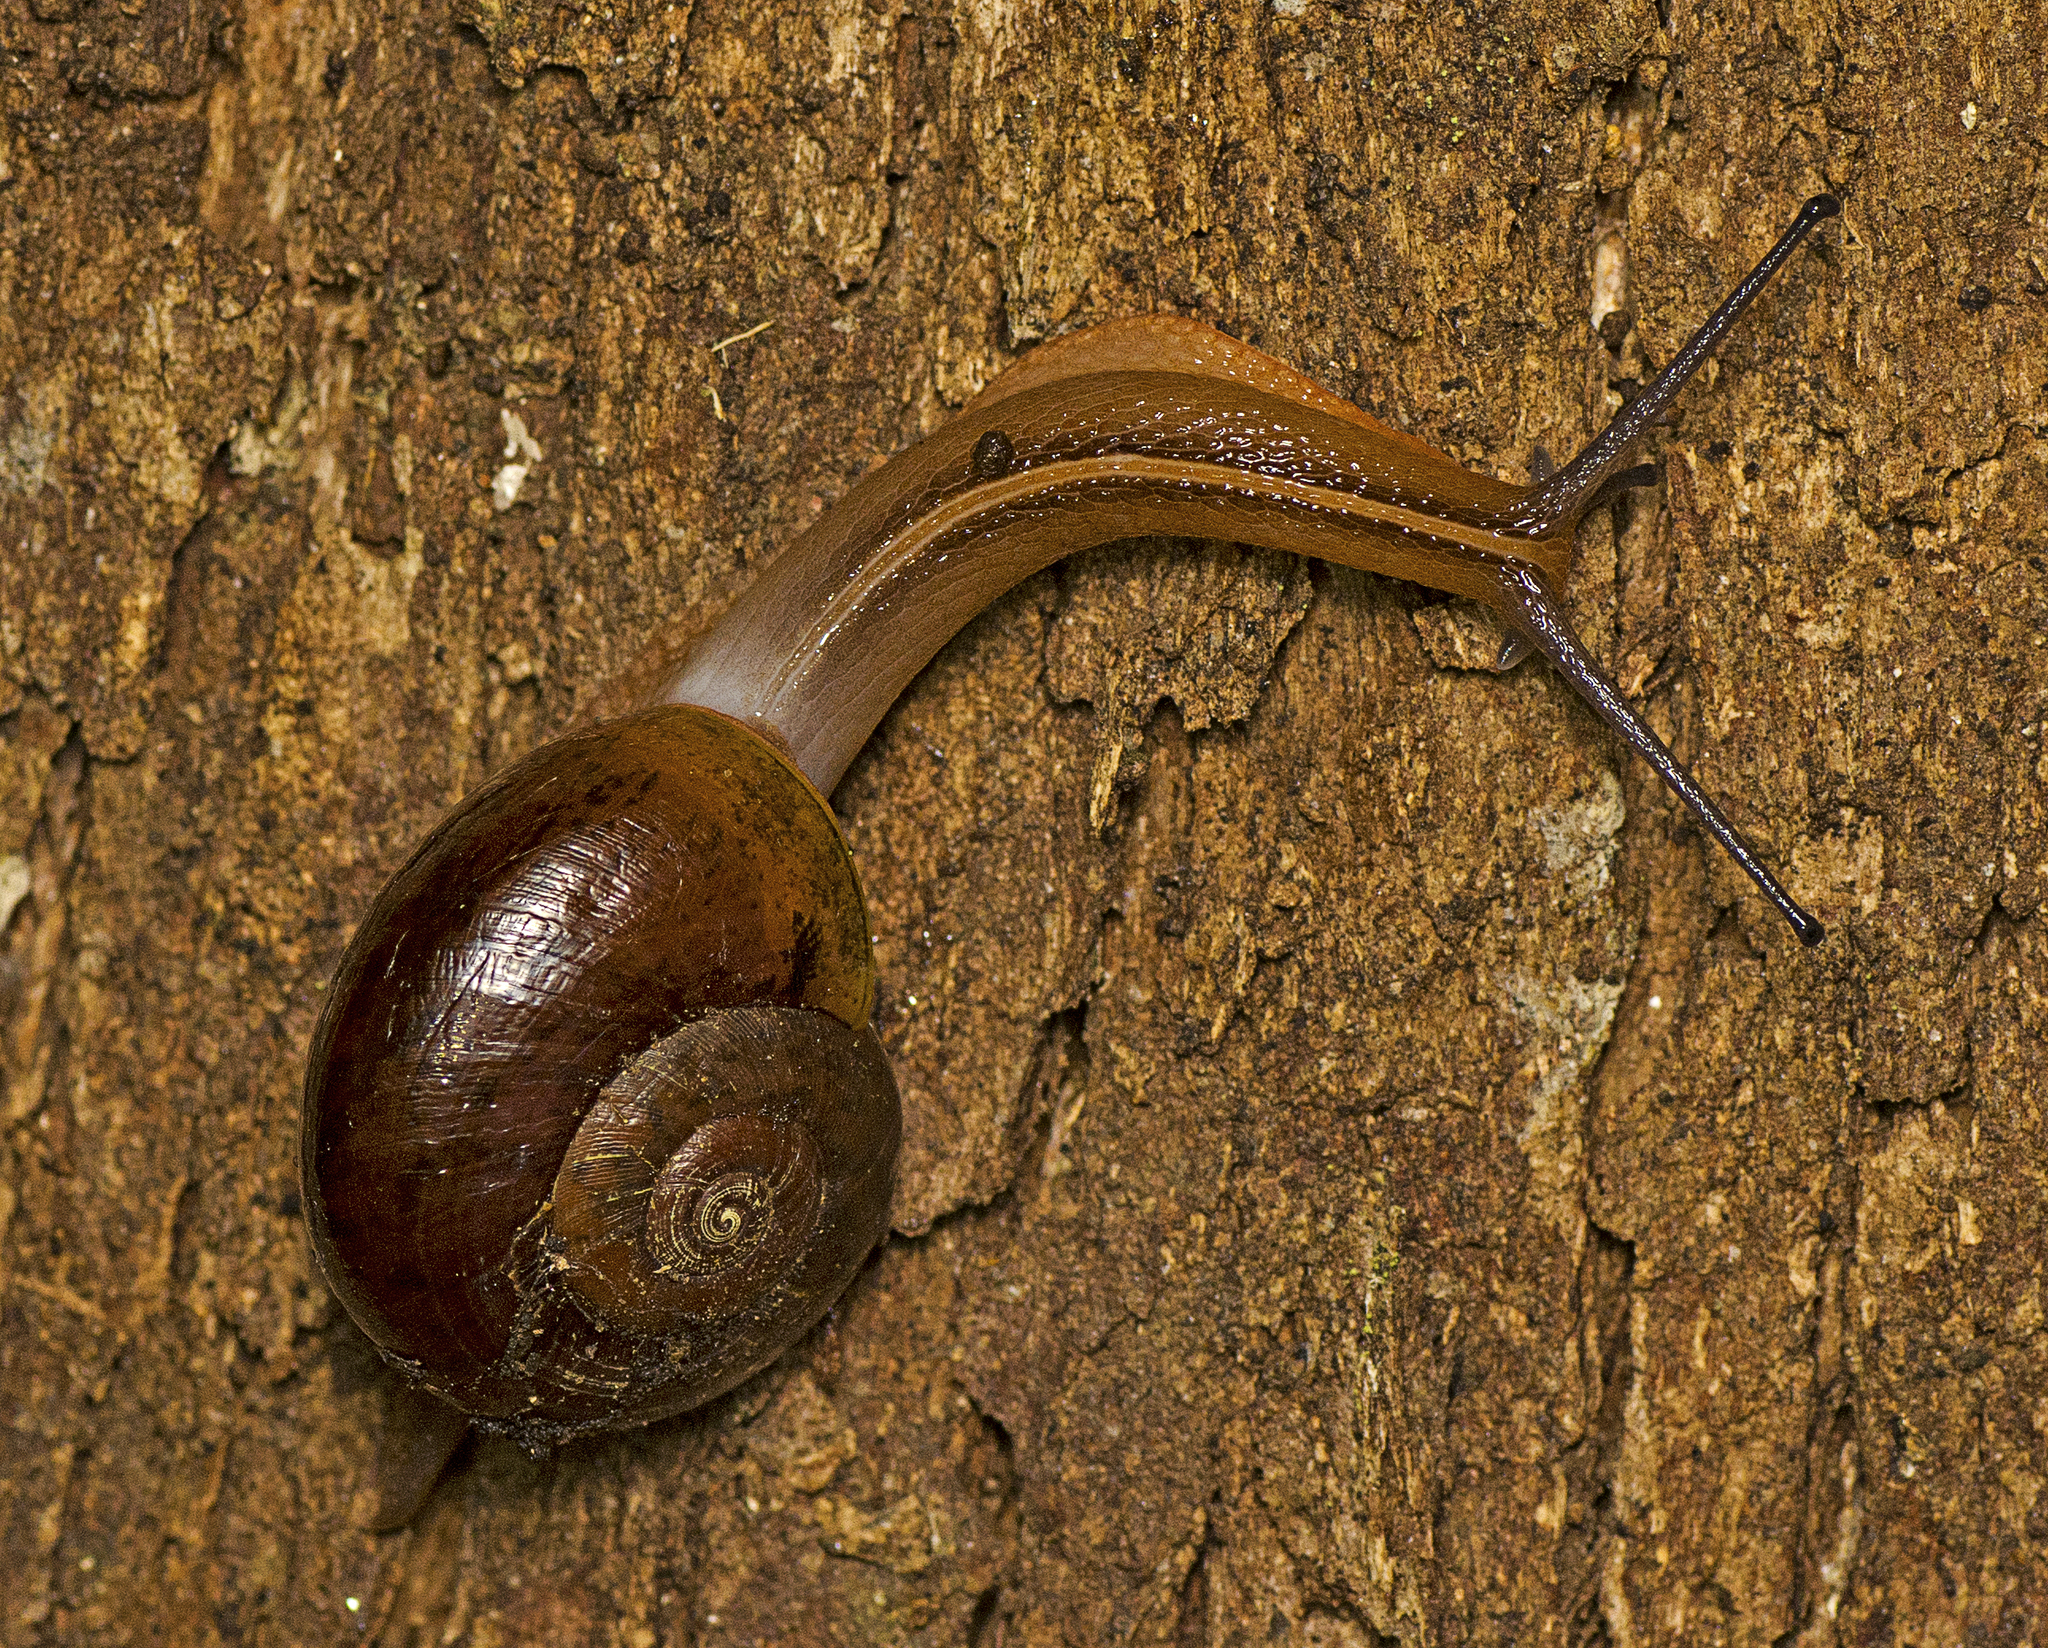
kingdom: Animalia
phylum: Mollusca
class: Gastropoda
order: Stylommatophora
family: Rhytididae
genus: Terrycarlessia
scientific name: Terrycarlessia turbinata
